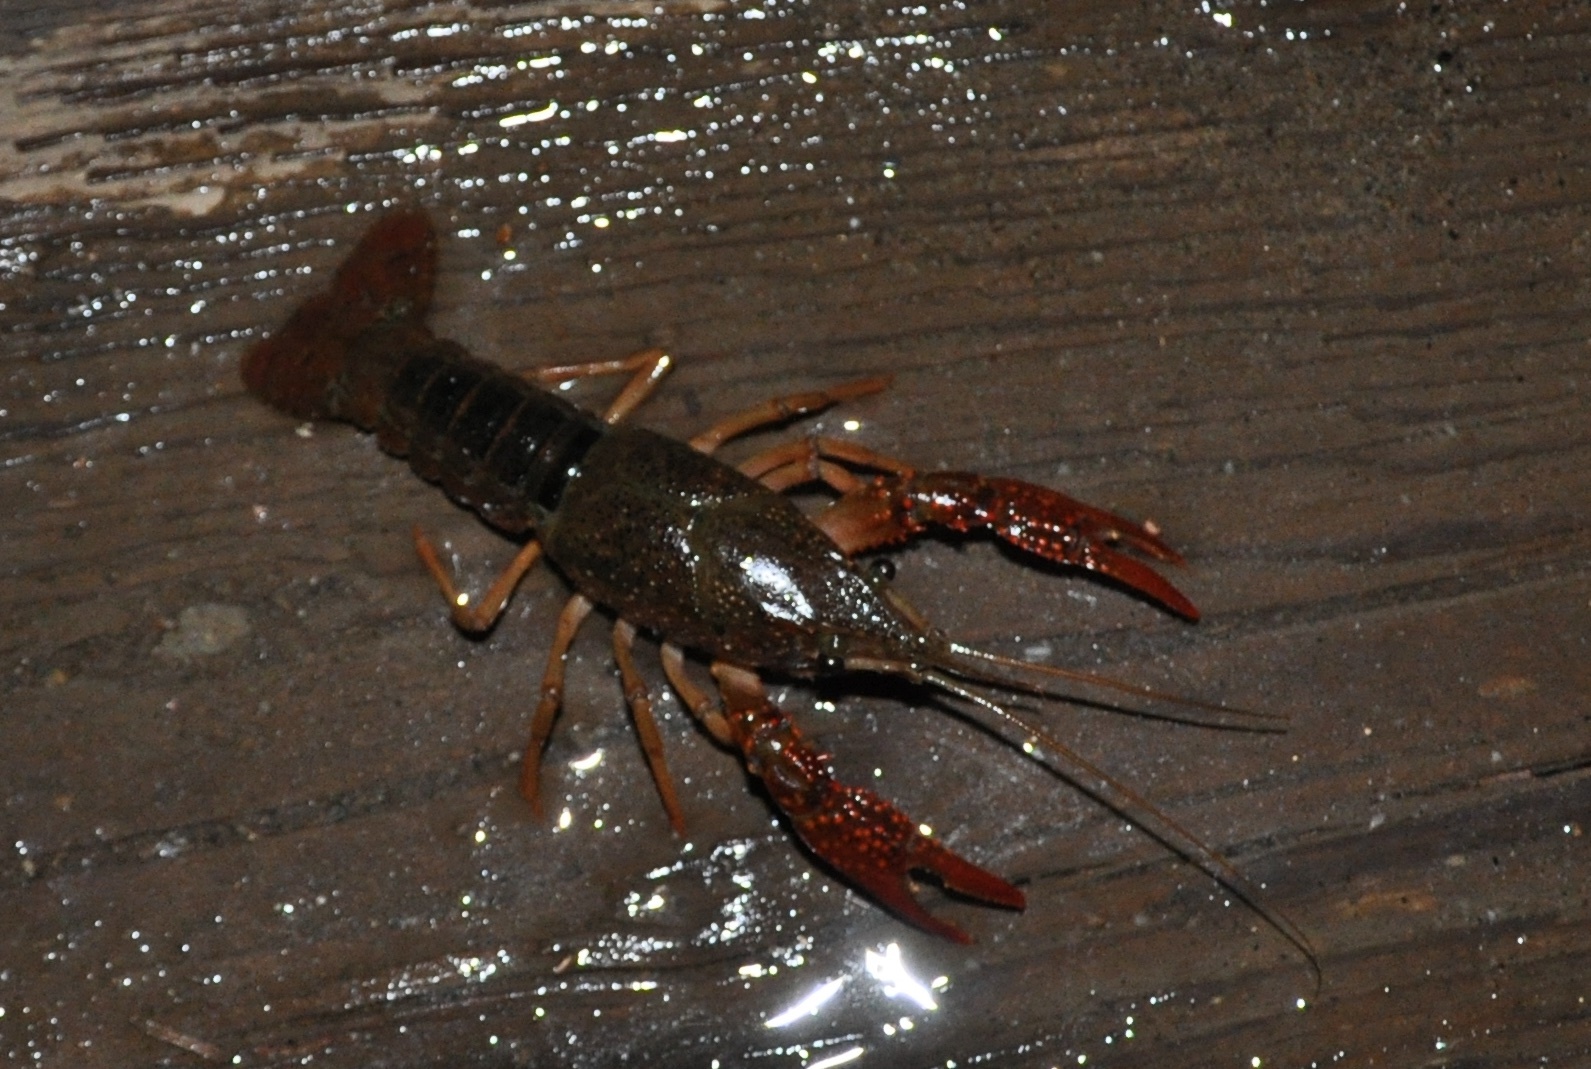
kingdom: Animalia
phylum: Arthropoda
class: Malacostraca
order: Decapoda
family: Cambaridae
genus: Procambarus
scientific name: Procambarus clarkii
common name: Red swamp crayfish
